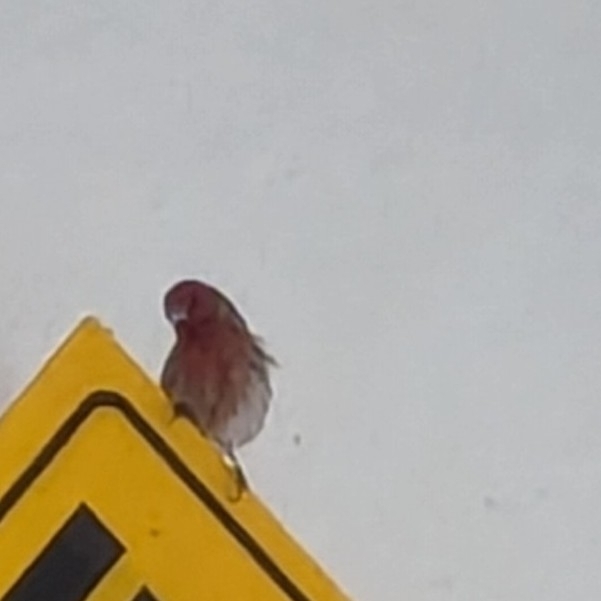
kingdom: Animalia
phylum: Chordata
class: Aves
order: Passeriformes
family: Fringillidae
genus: Haemorhous
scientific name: Haemorhous mexicanus
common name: House finch
